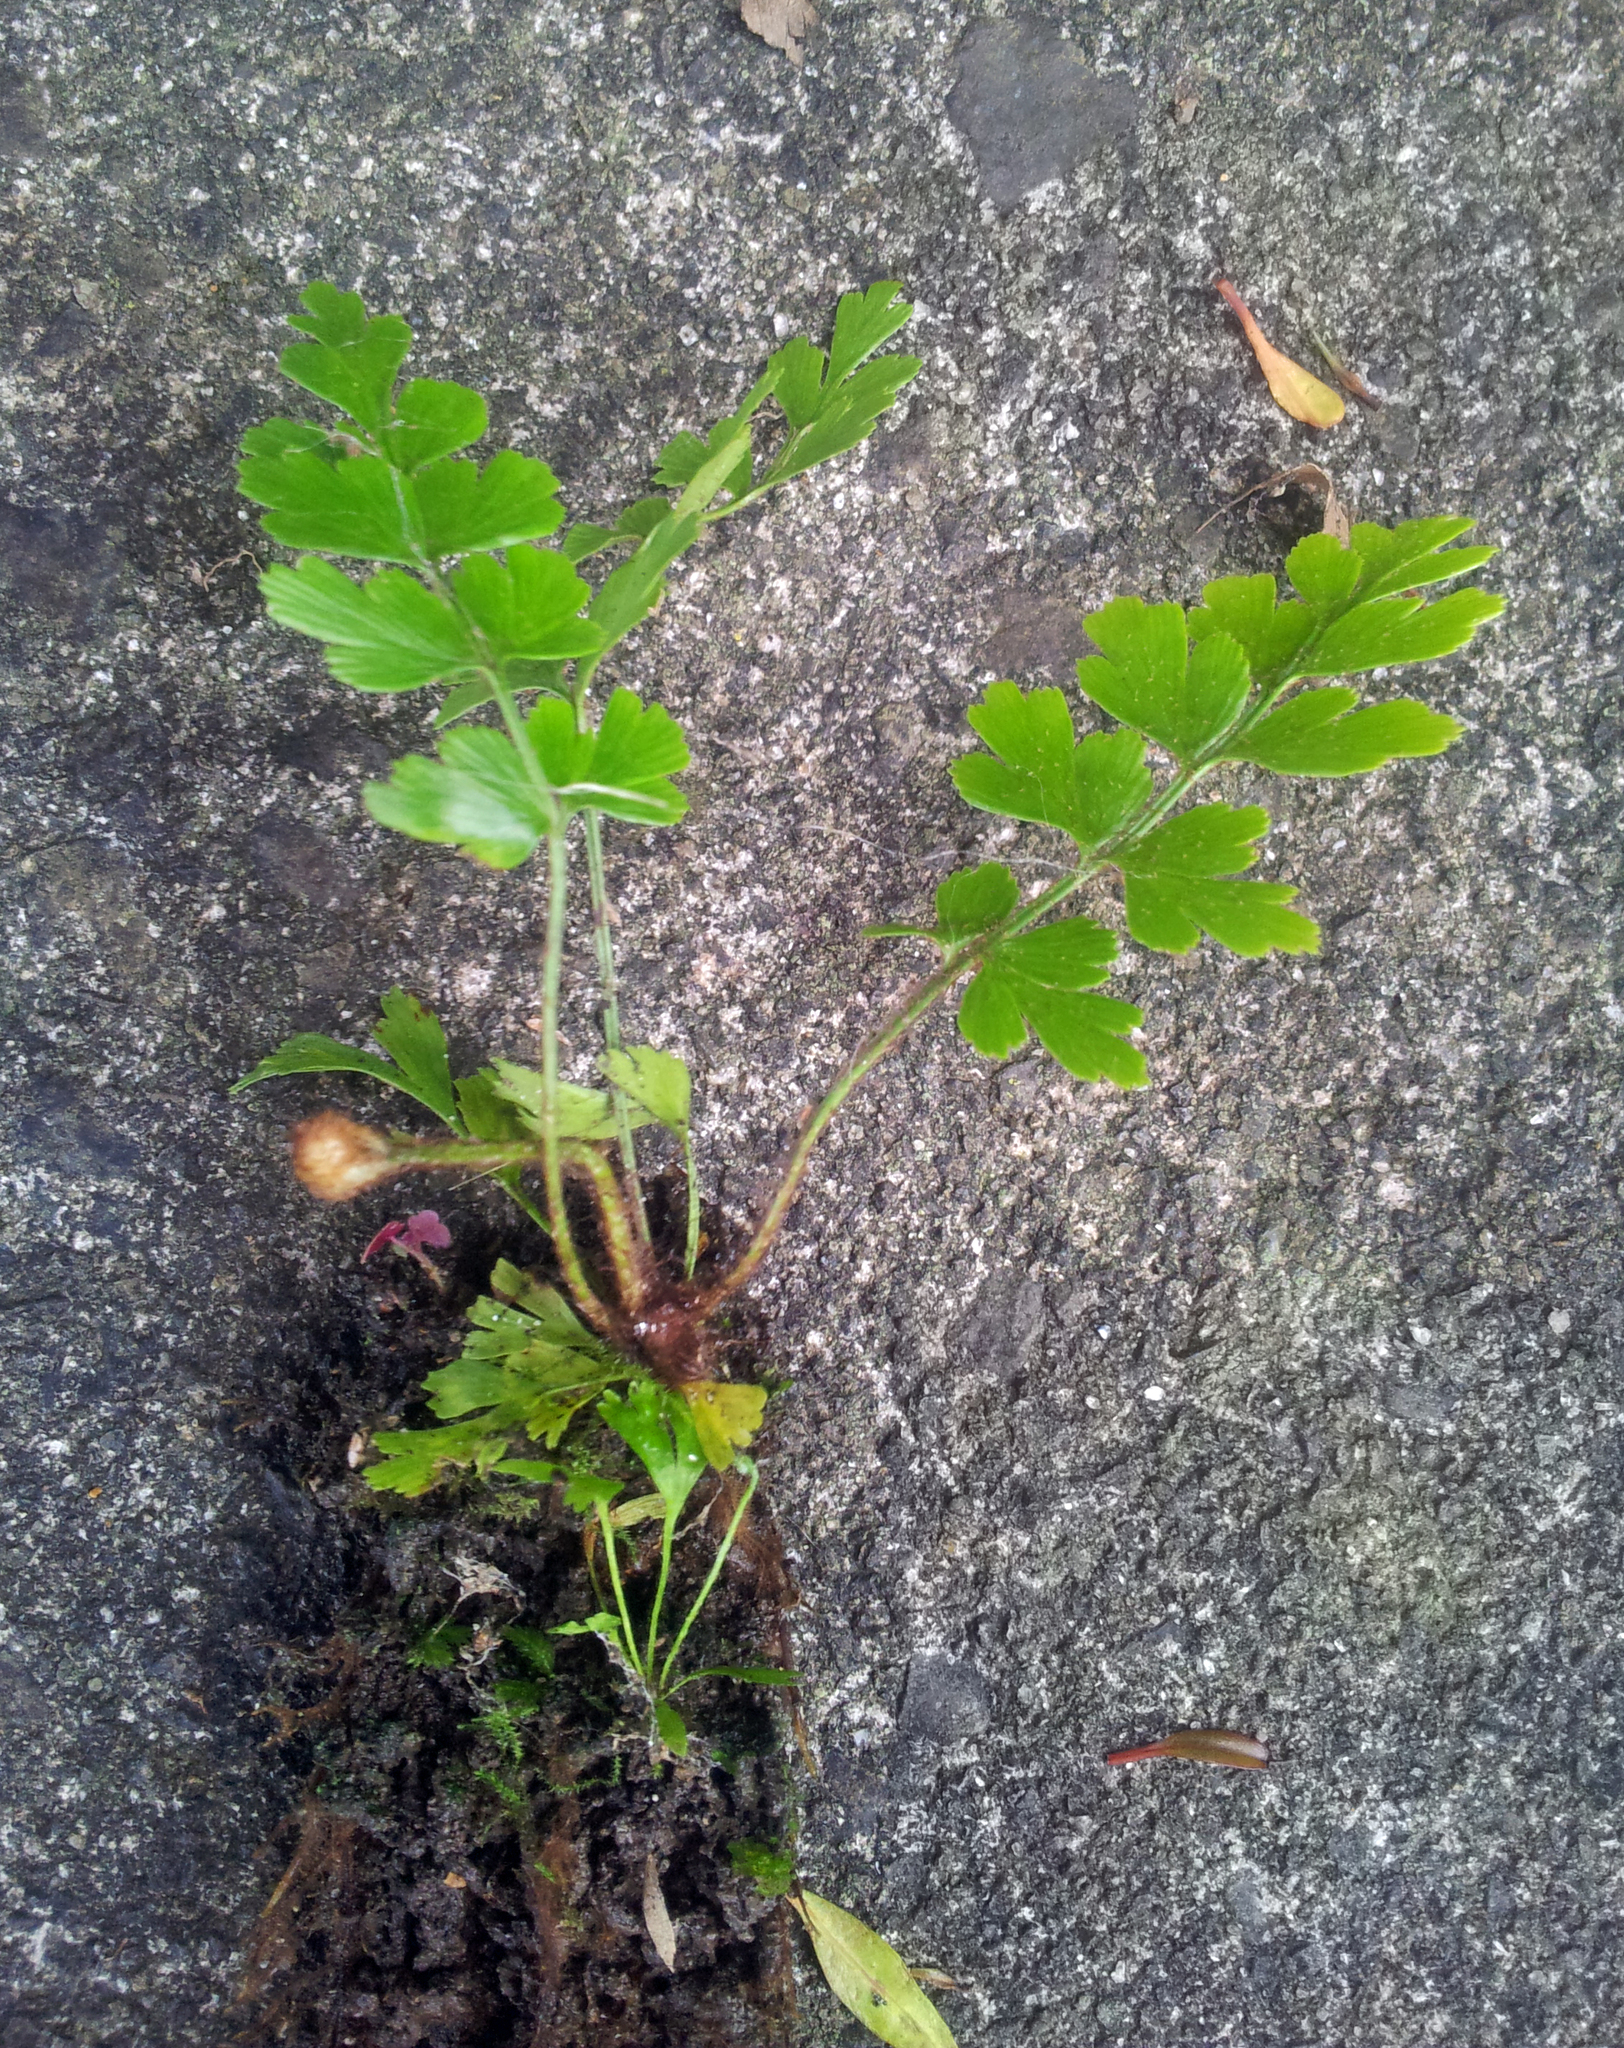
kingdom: Plantae
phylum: Tracheophyta
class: Polypodiopsida
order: Polypodiales
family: Aspleniaceae
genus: Asplenium
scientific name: Asplenium aethiopicum
